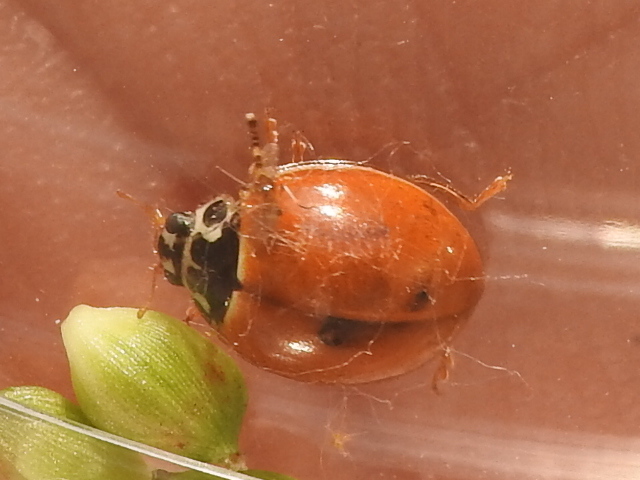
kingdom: Animalia
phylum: Arthropoda
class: Insecta
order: Coleoptera
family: Coccinellidae
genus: Cycloneda
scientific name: Cycloneda munda
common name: Polished lady beetle
